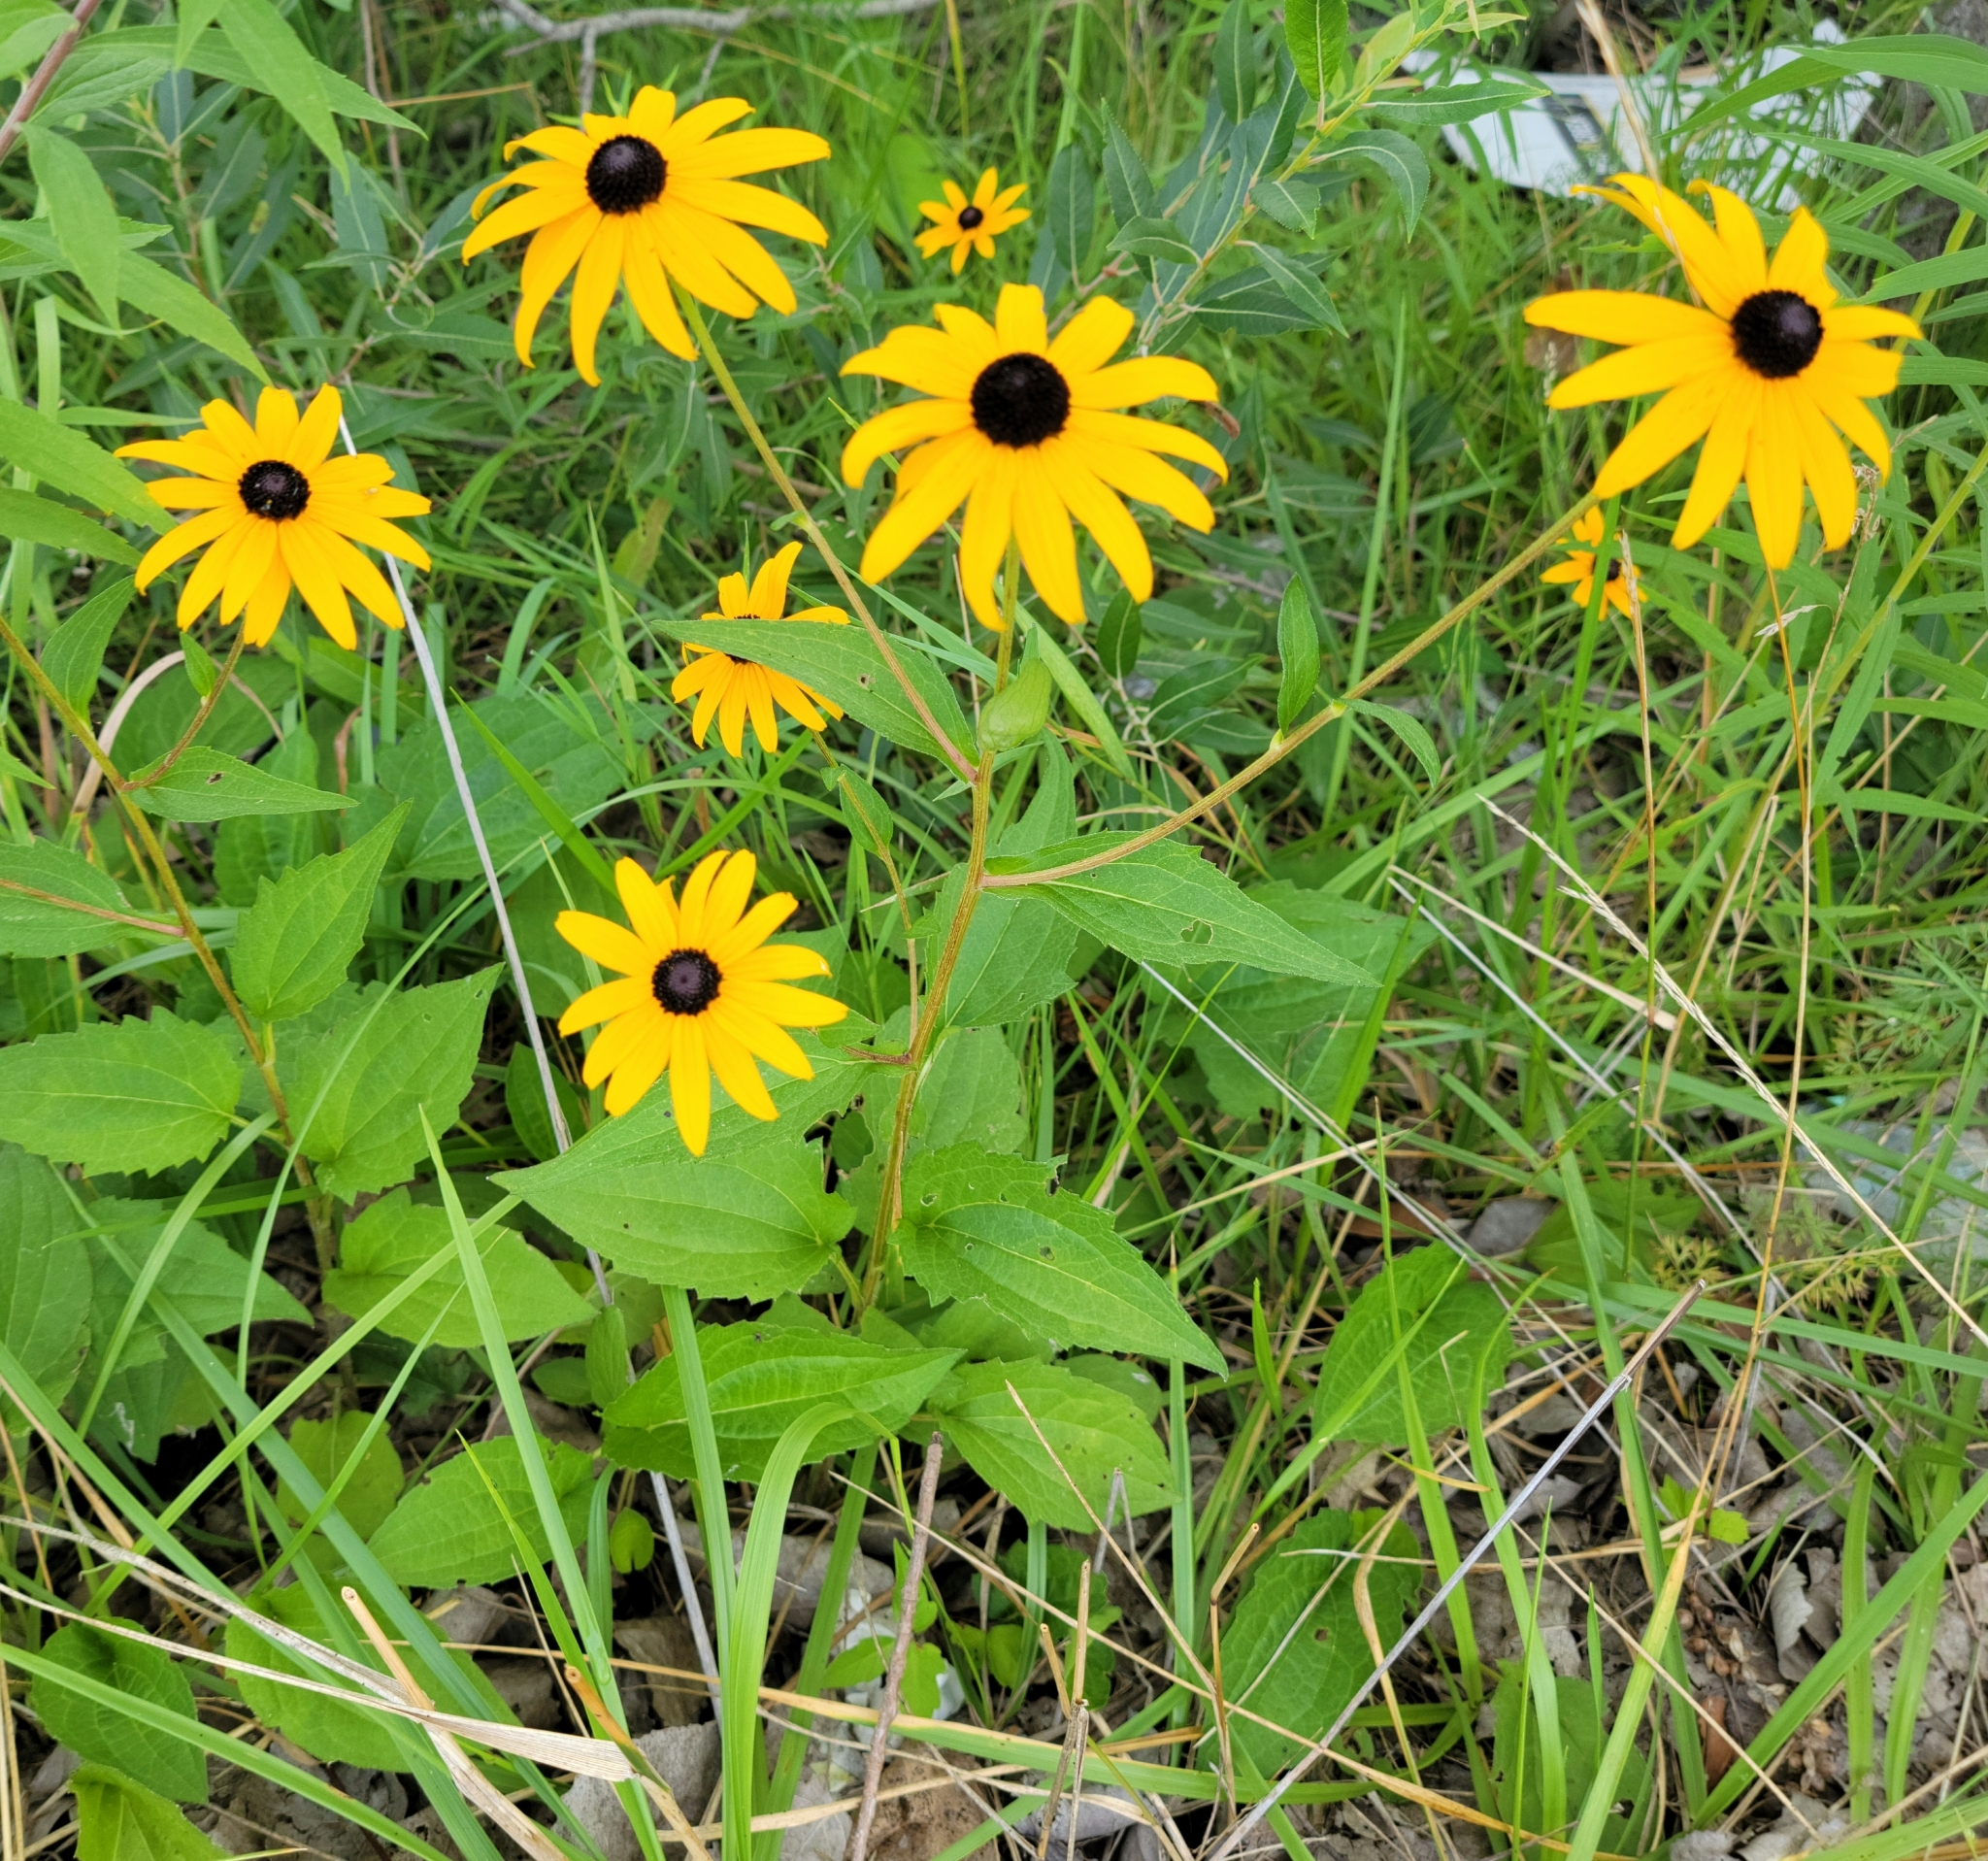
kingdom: Plantae
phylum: Tracheophyta
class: Magnoliopsida
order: Asterales
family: Asteraceae
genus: Rudbeckia
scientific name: Rudbeckia fulgida
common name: Perennial coneflower
